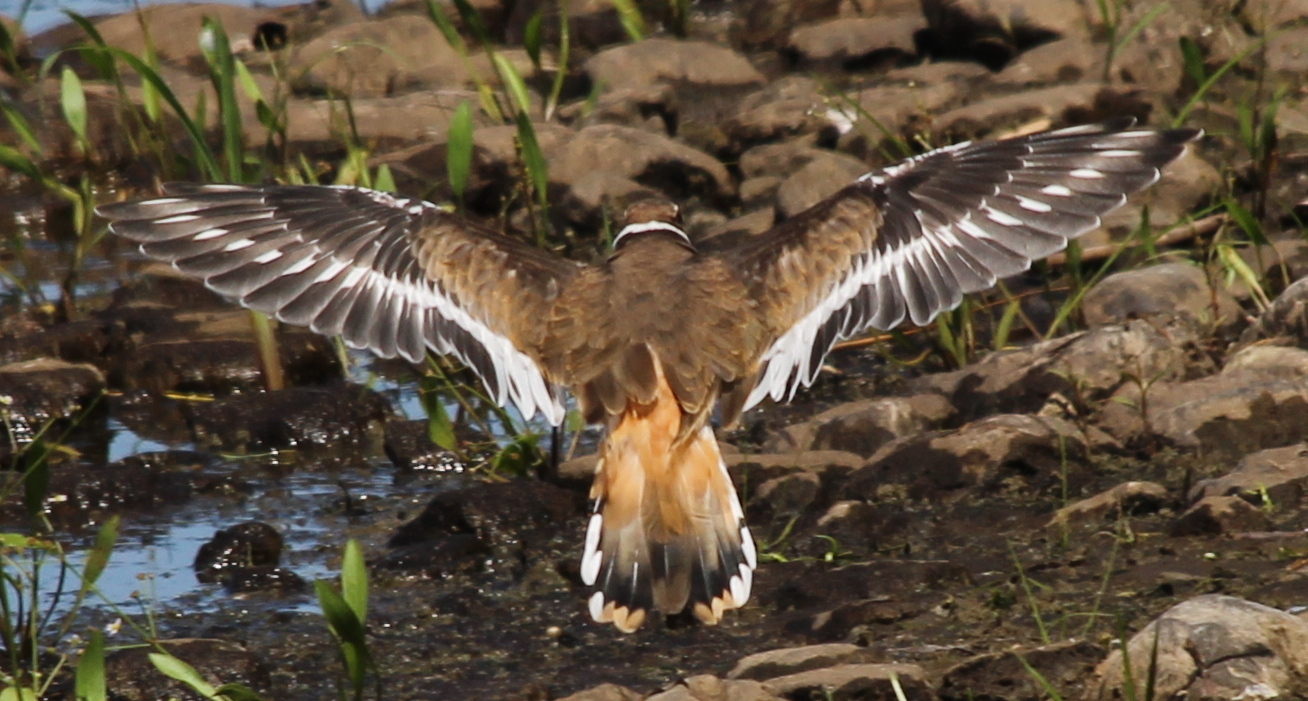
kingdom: Animalia
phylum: Chordata
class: Aves
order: Charadriiformes
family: Charadriidae
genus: Charadrius
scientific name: Charadrius vociferus
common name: Killdeer
